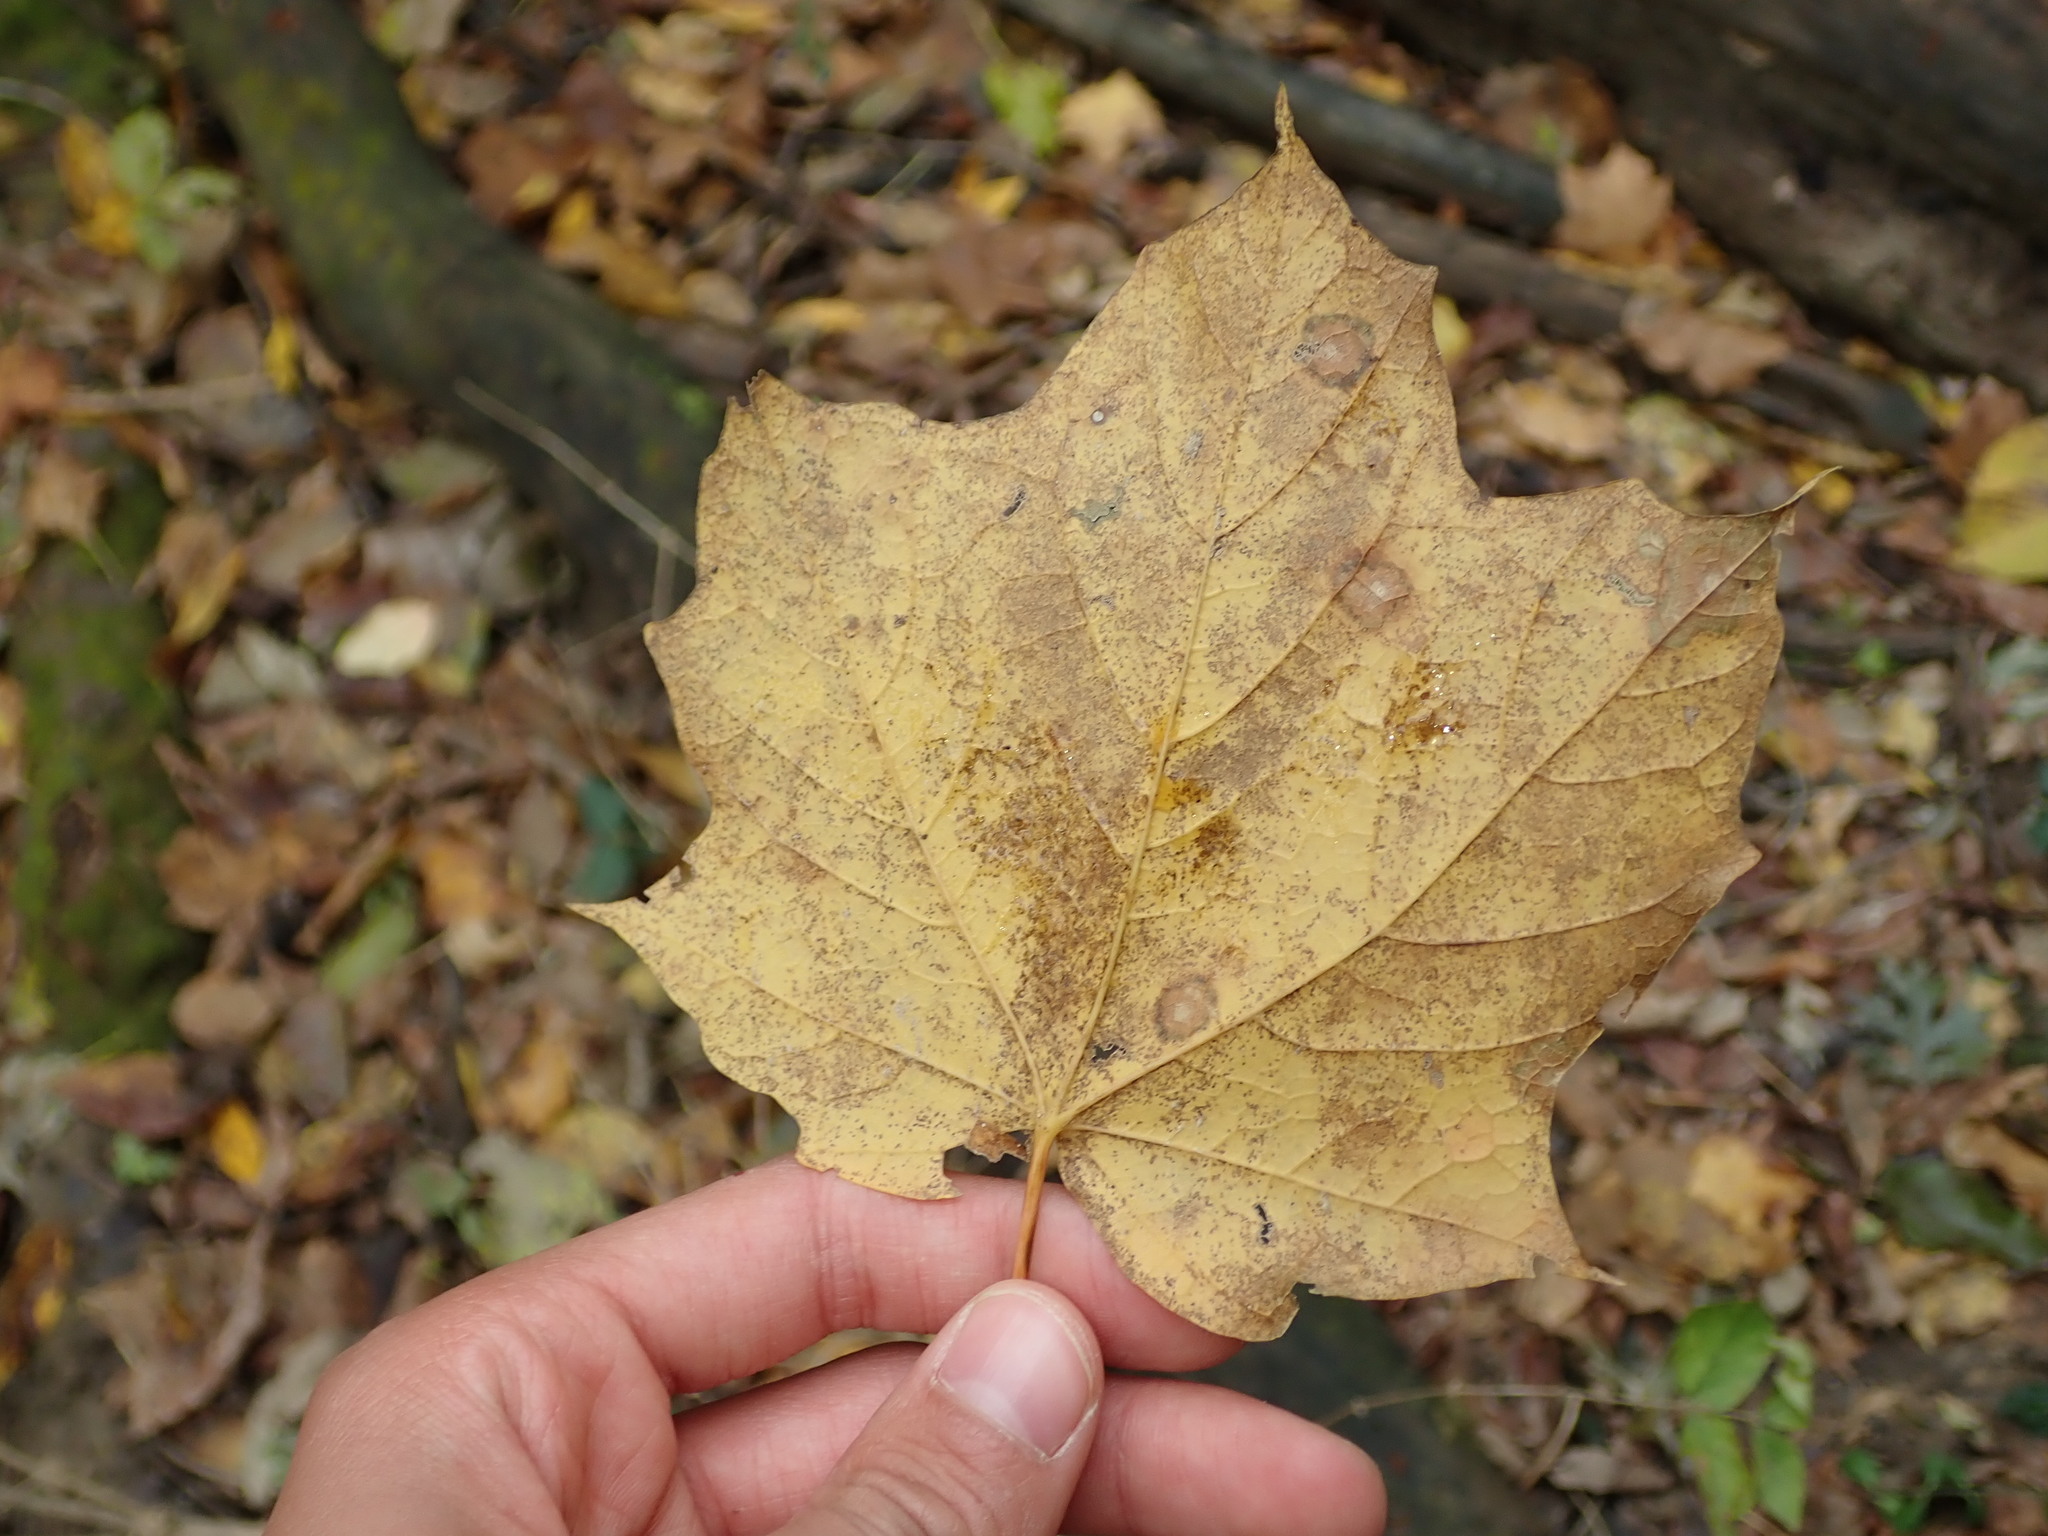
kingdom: Plantae
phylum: Tracheophyta
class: Magnoliopsida
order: Sapindales
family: Sapindaceae
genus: Acer
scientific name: Acer nigrum
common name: Black maple
